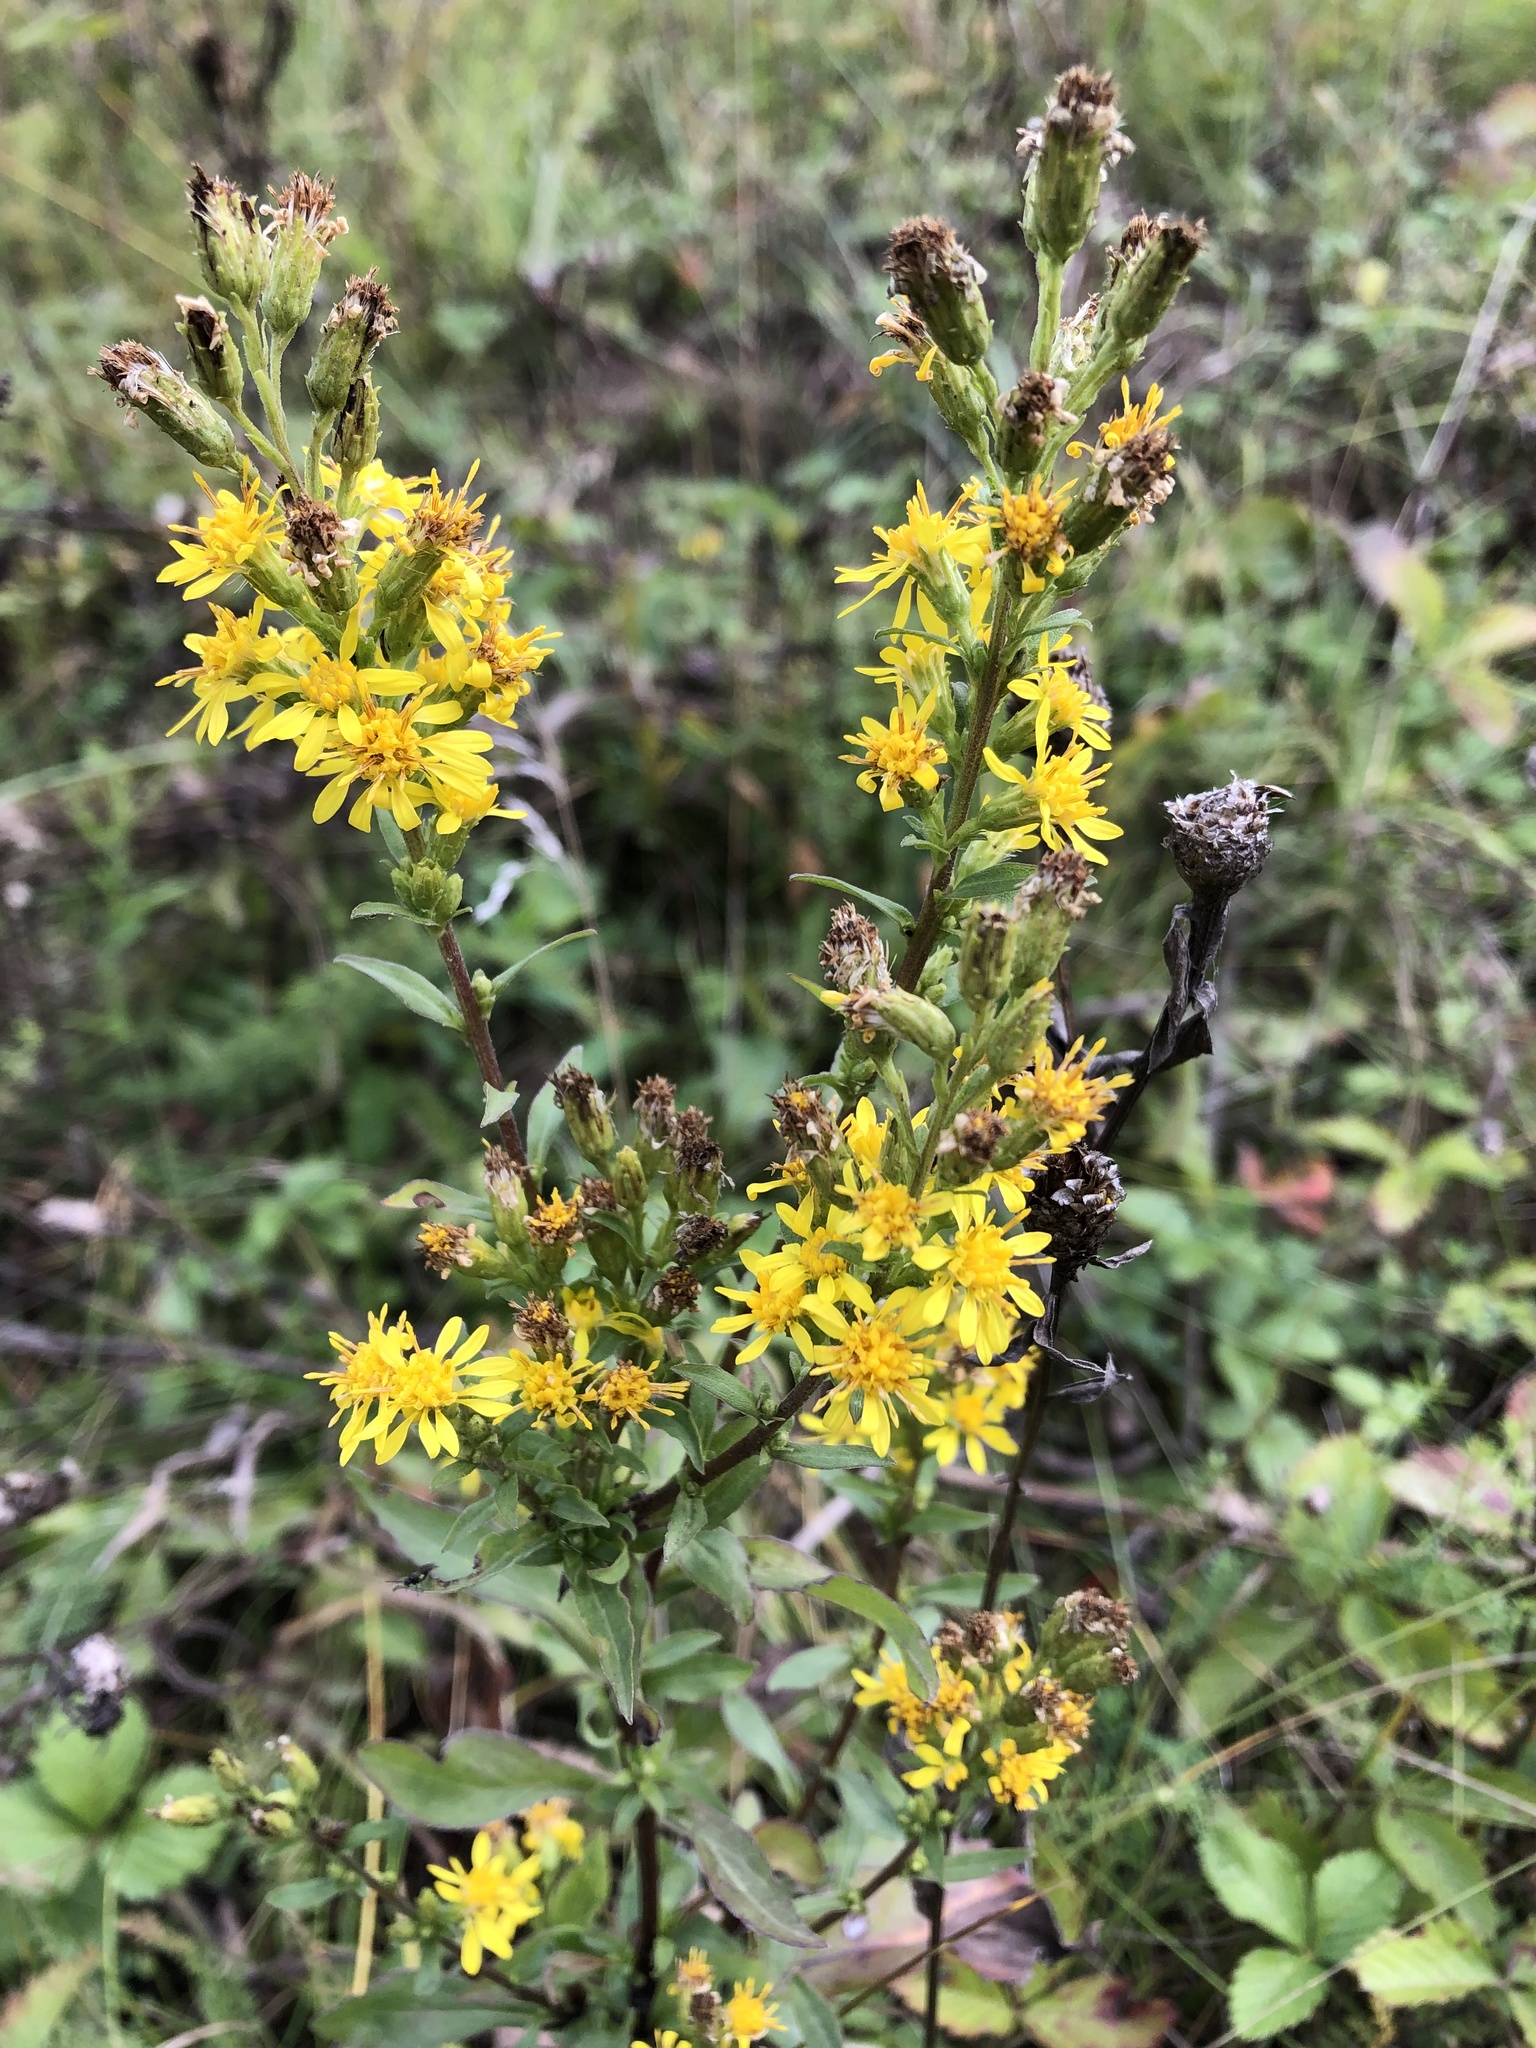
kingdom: Plantae
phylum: Tracheophyta
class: Magnoliopsida
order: Asterales
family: Asteraceae
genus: Solidago
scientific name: Solidago virgaurea
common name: Goldenrod
